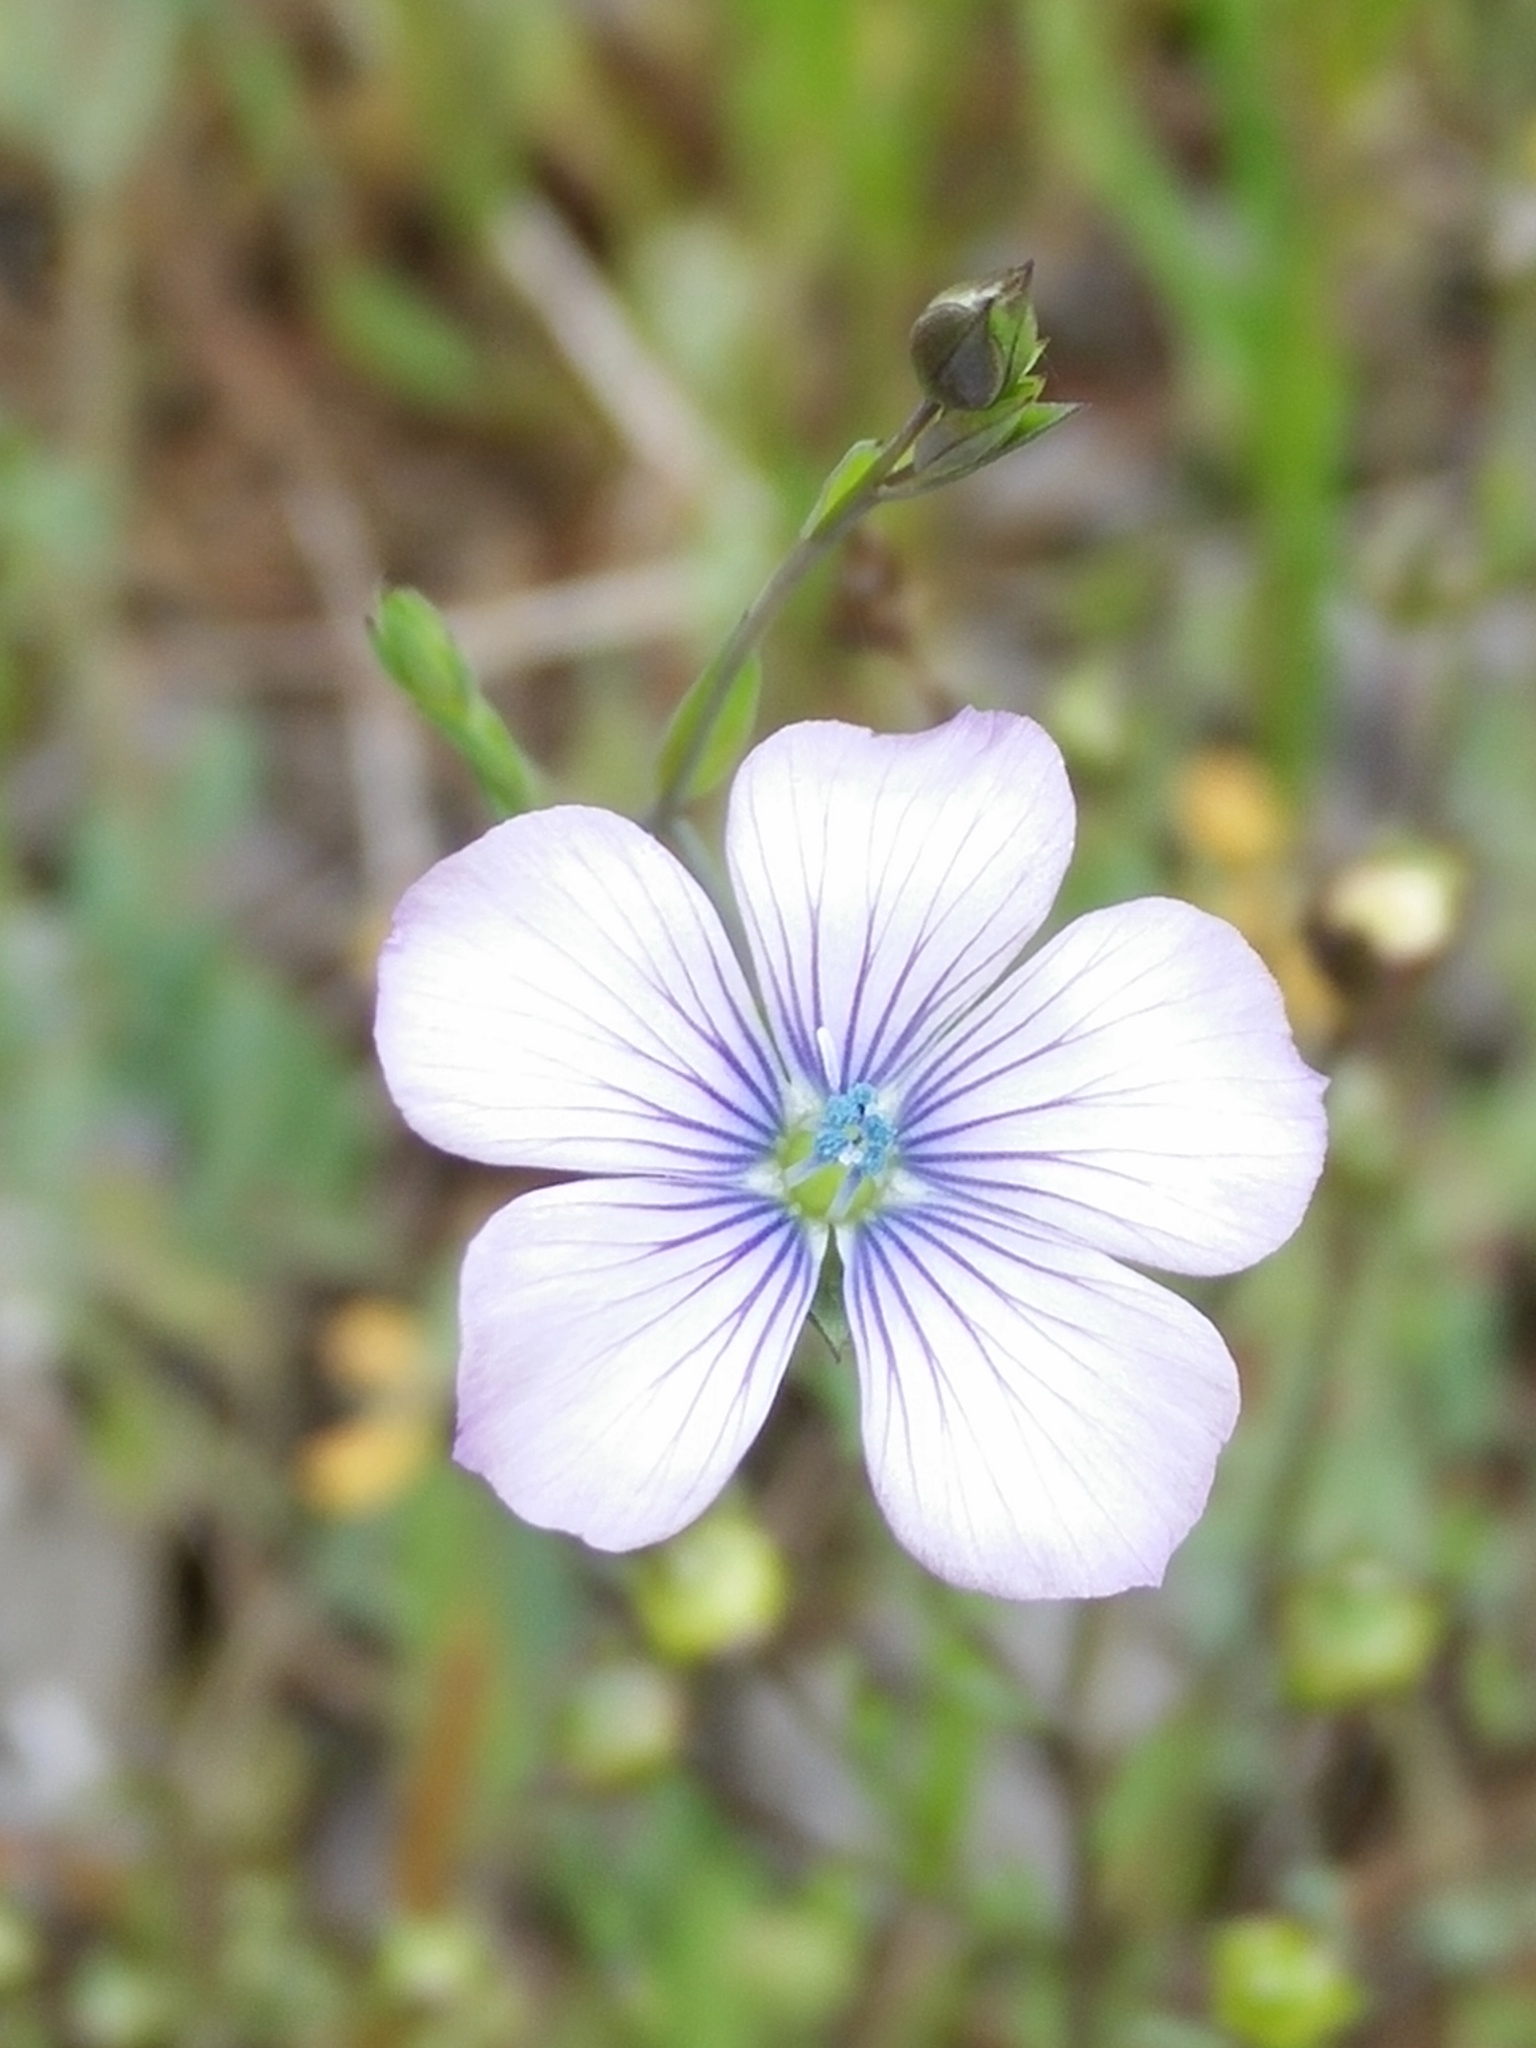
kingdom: Plantae
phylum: Tracheophyta
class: Magnoliopsida
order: Malpighiales
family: Linaceae
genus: Linum
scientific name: Linum bienne
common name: Pale flax
